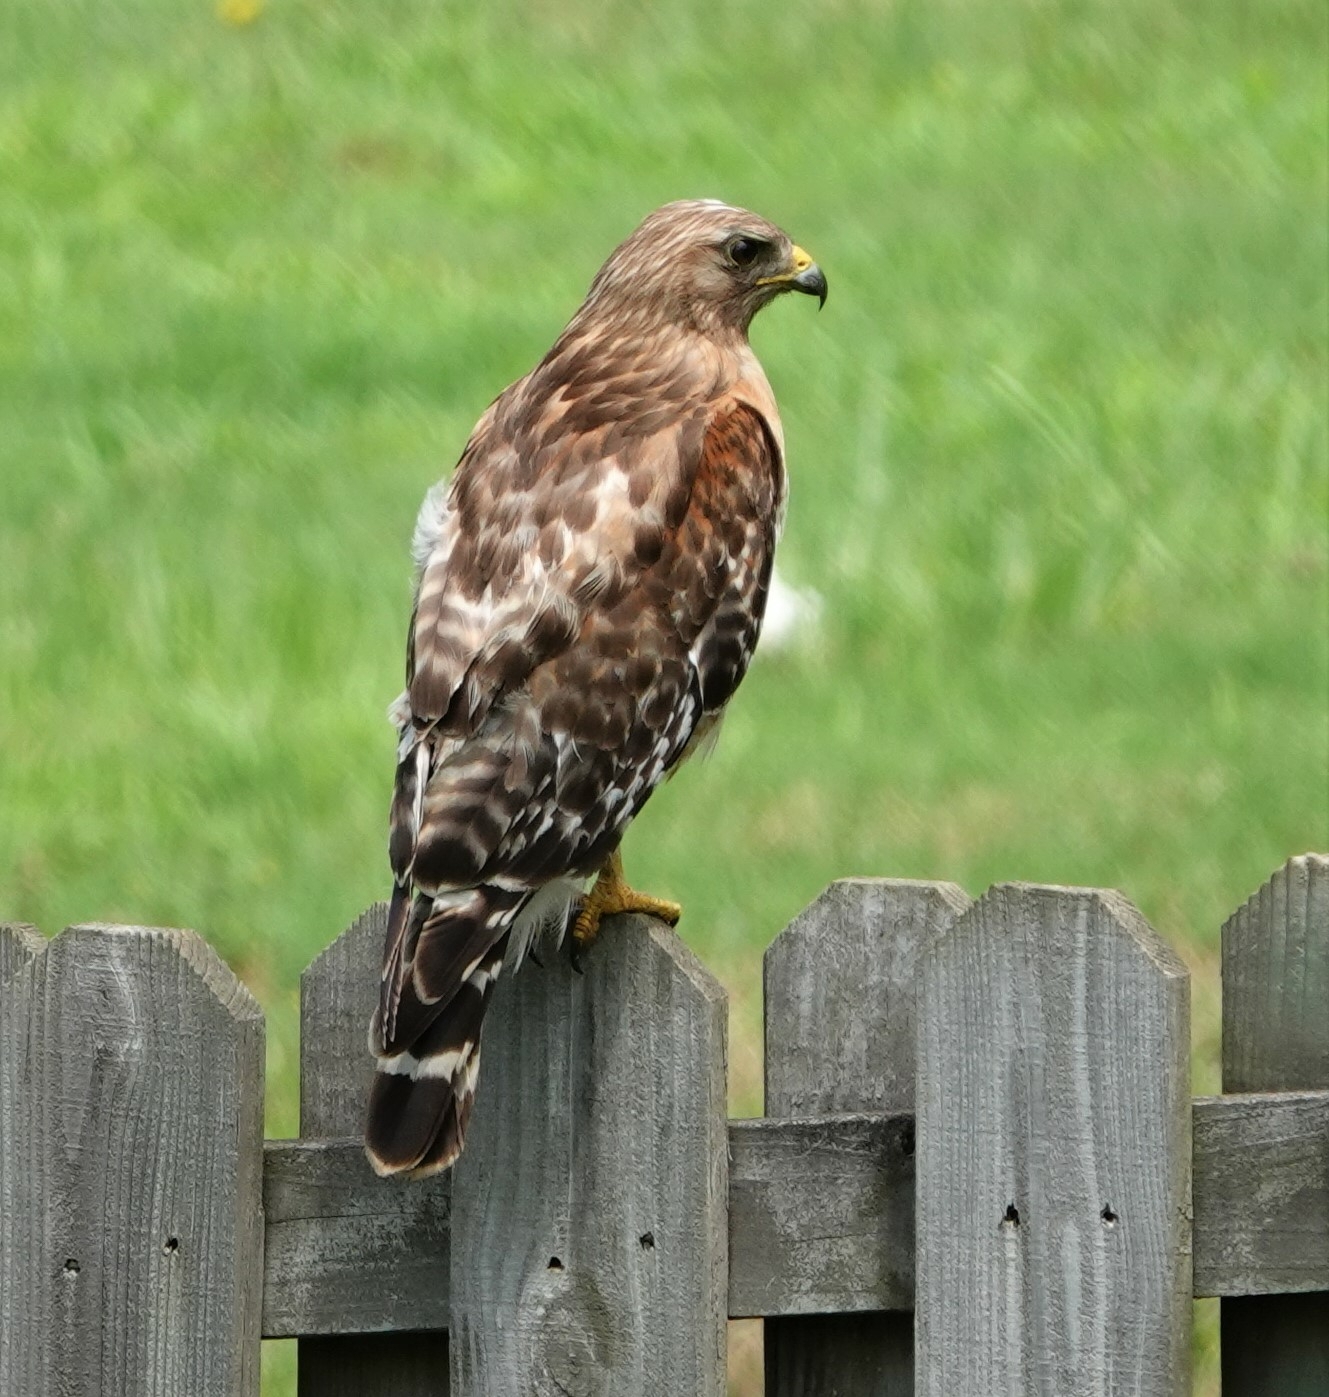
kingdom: Animalia
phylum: Chordata
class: Aves
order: Accipitriformes
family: Accipitridae
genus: Buteo
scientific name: Buteo lineatus
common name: Red-shouldered hawk
